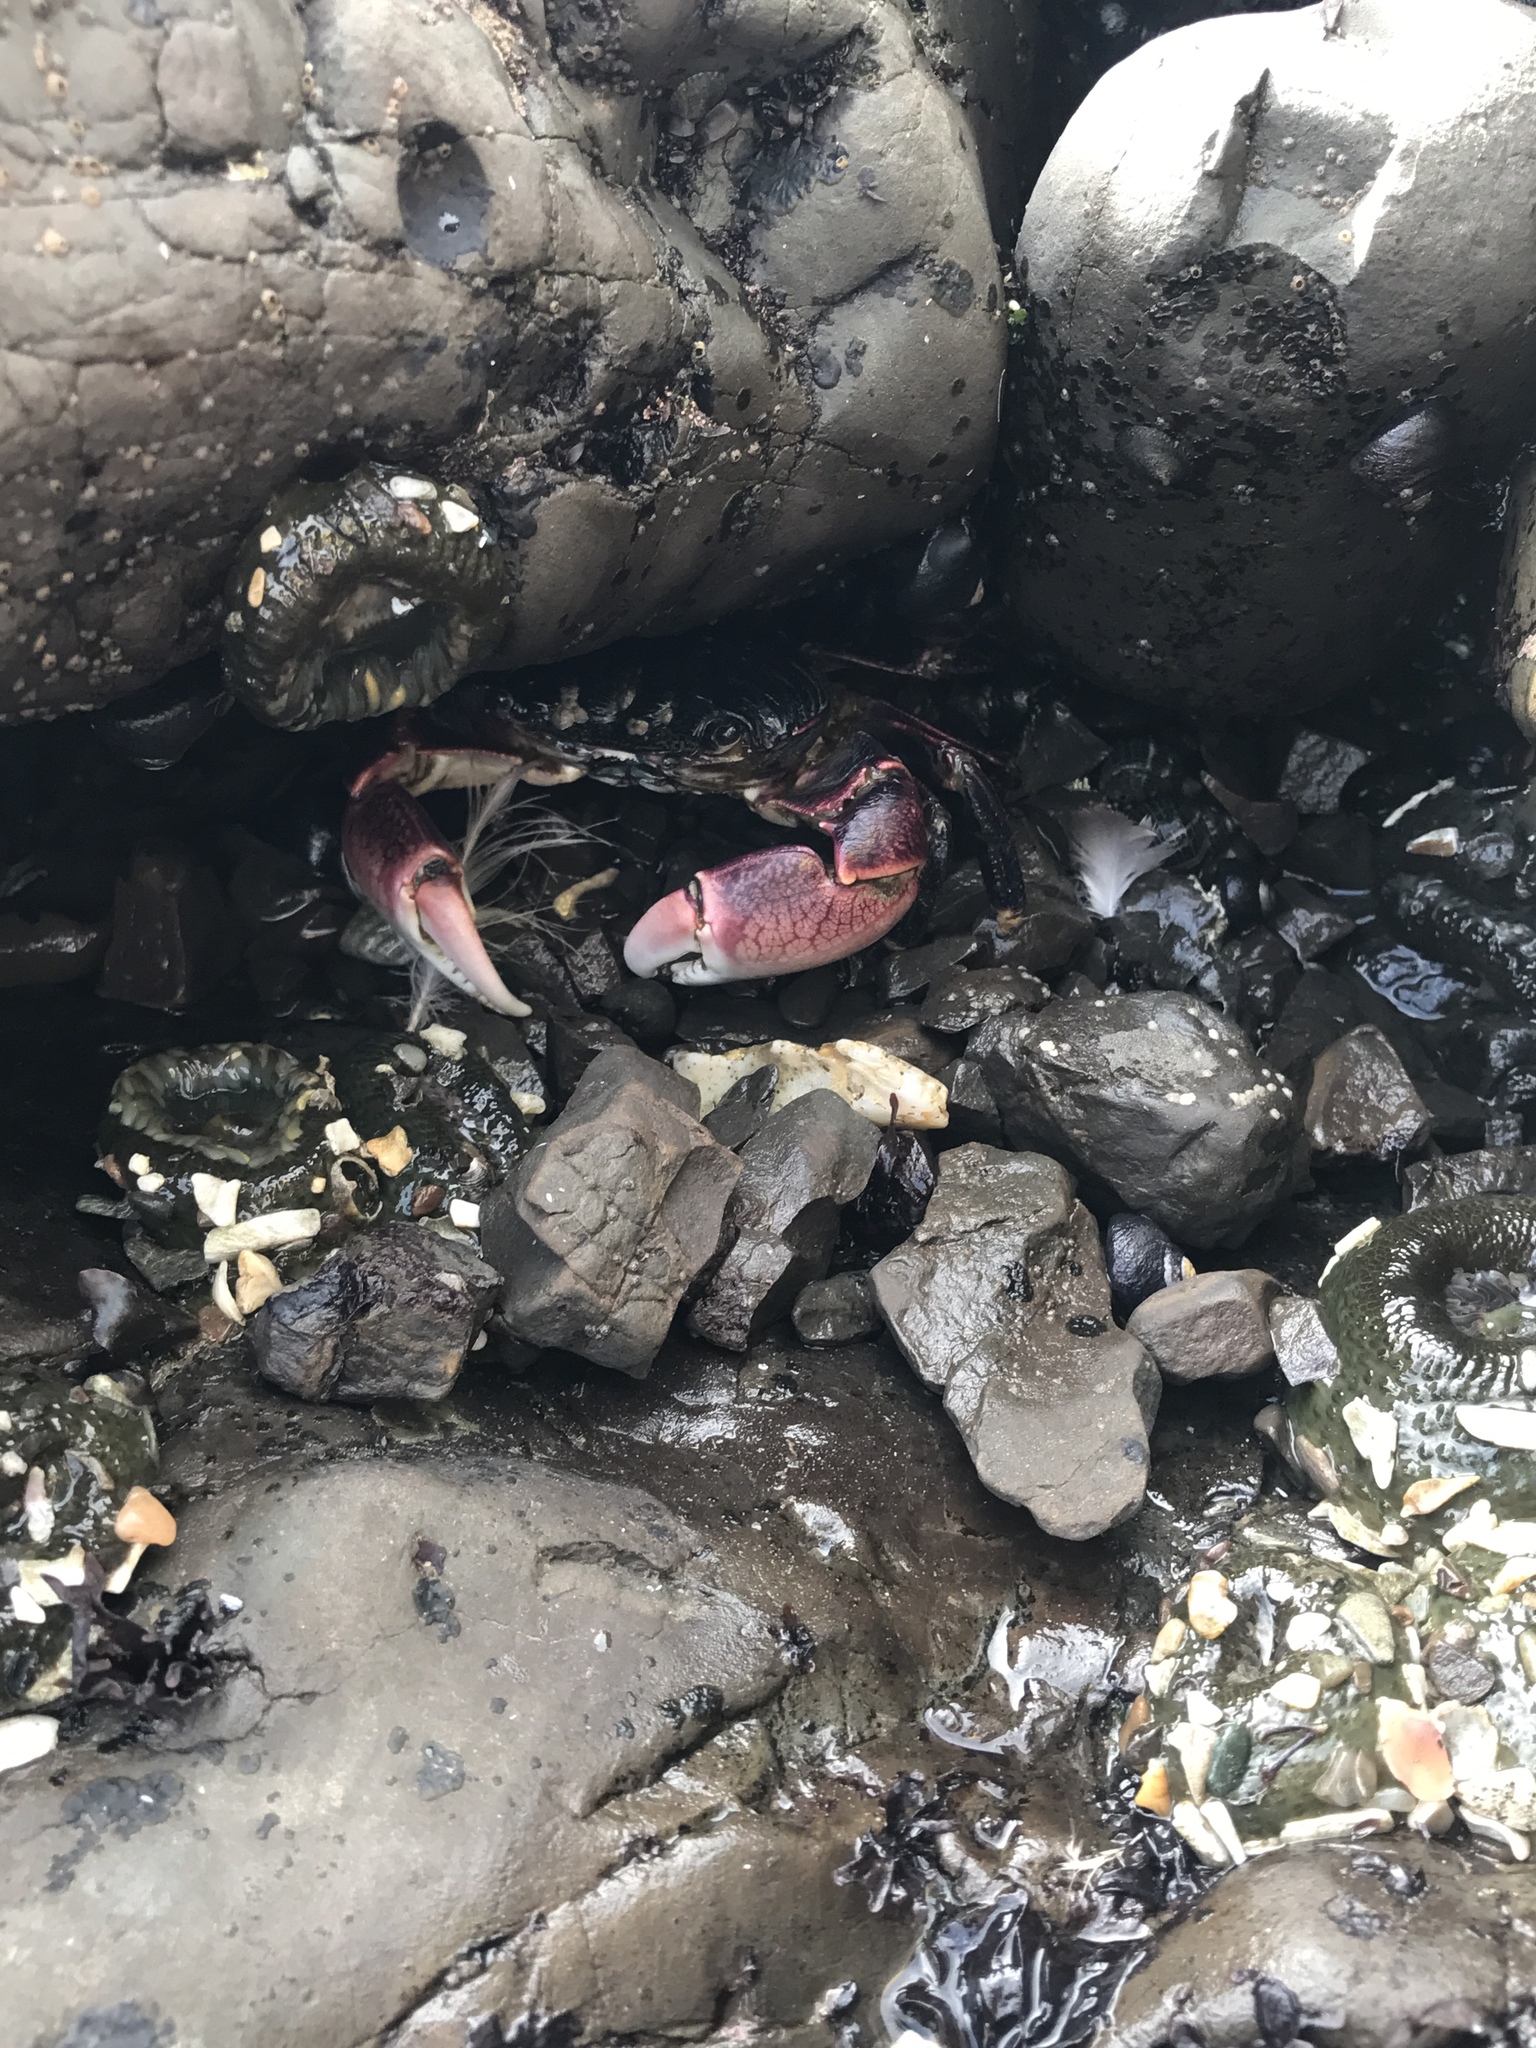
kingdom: Animalia
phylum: Arthropoda
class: Malacostraca
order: Decapoda
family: Grapsidae
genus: Pachygrapsus
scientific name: Pachygrapsus crassipes
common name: Striped shore crab
